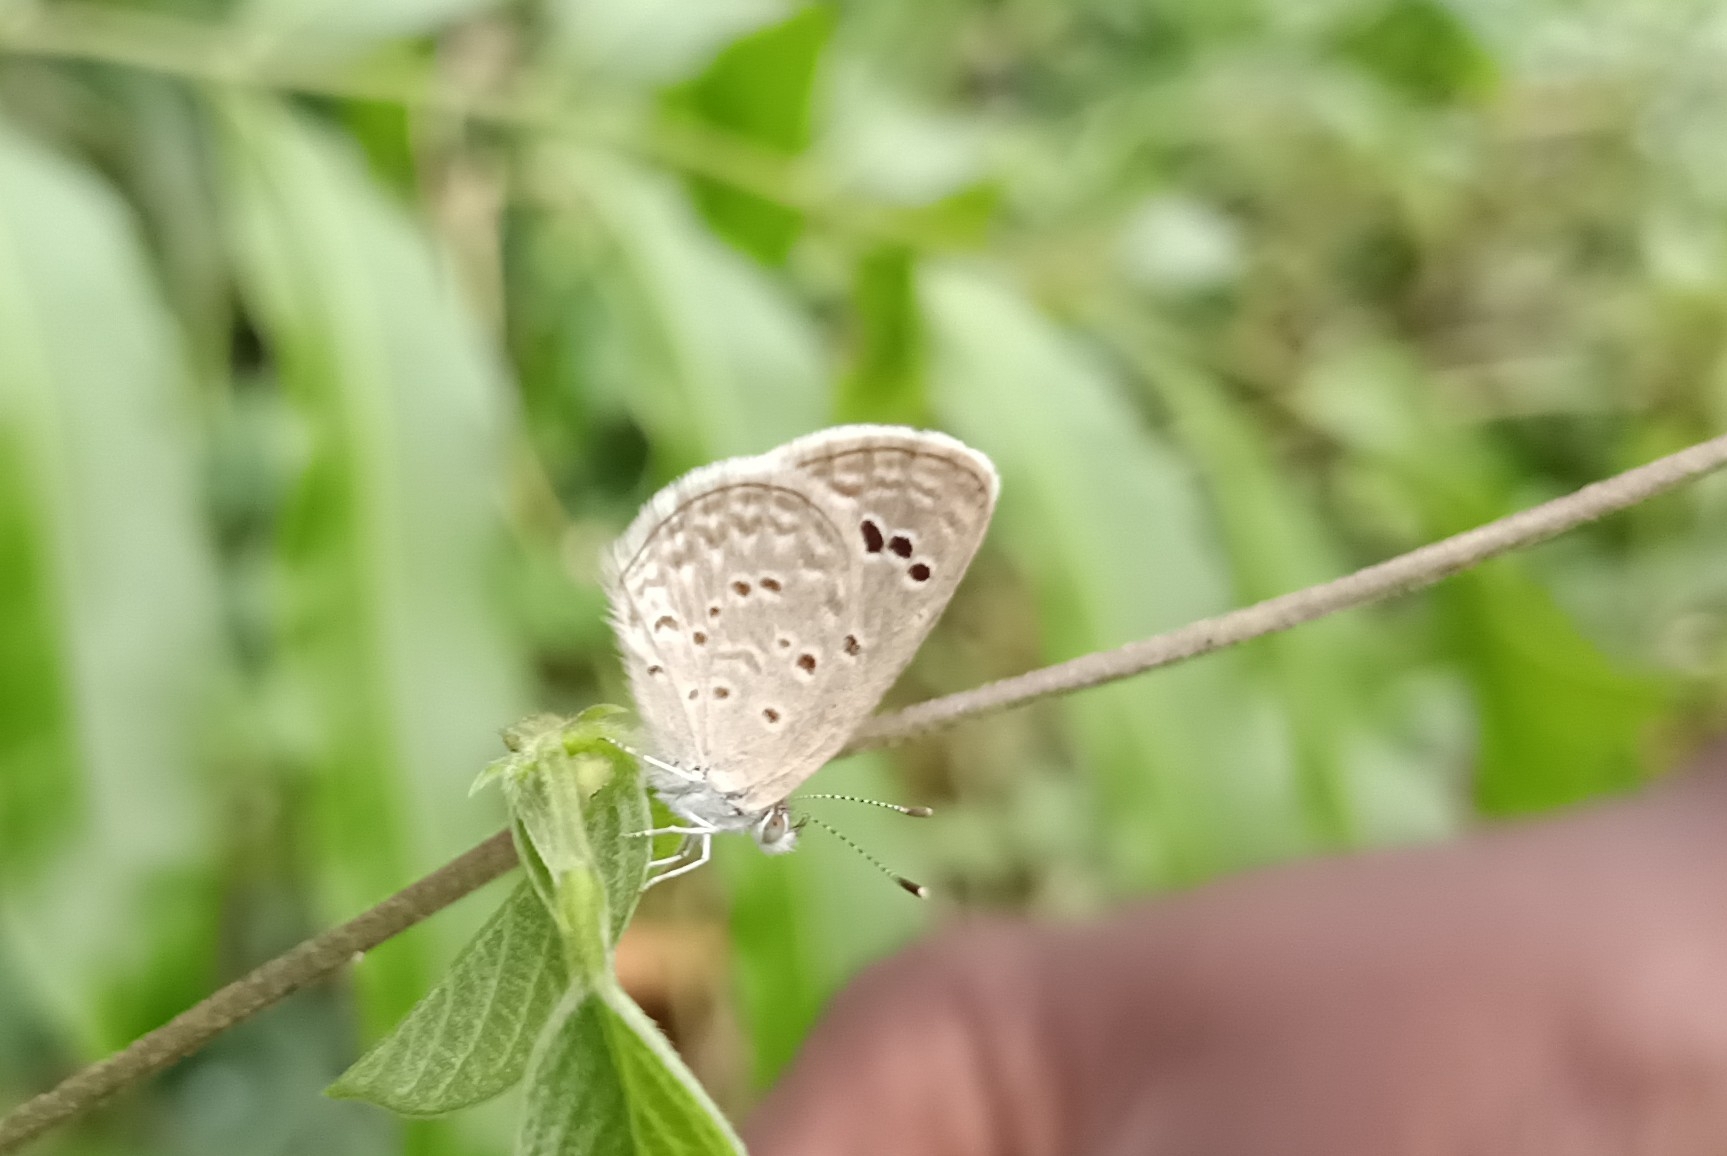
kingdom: Animalia
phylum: Arthropoda
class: Insecta
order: Lepidoptera
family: Lycaenidae
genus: Zizina
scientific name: Zizina otis
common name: Lesser grass blue
